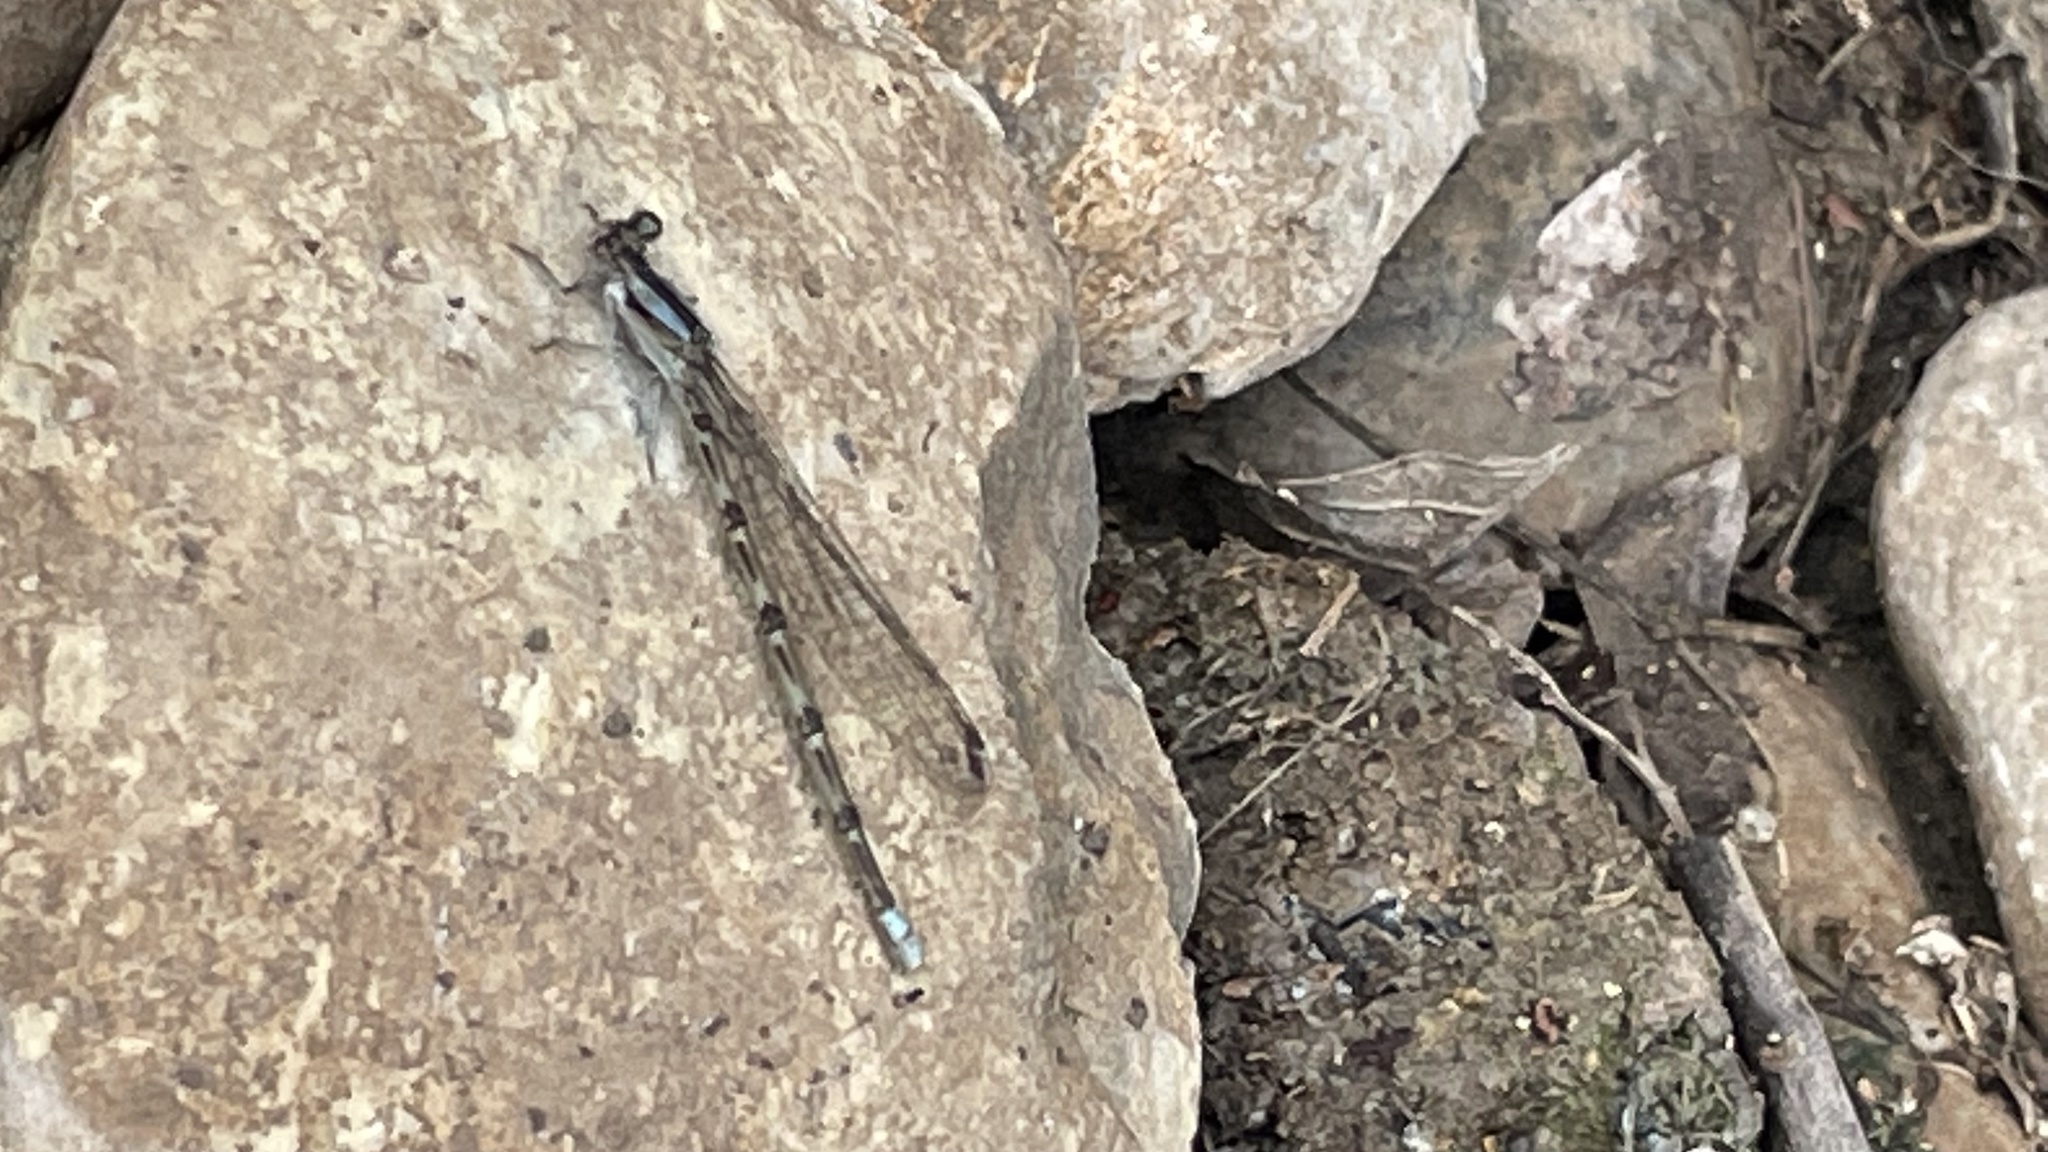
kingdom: Animalia
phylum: Arthropoda
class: Insecta
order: Odonata
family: Coenagrionidae
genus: Argia
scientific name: Argia immunda
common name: Kiowa dancer
